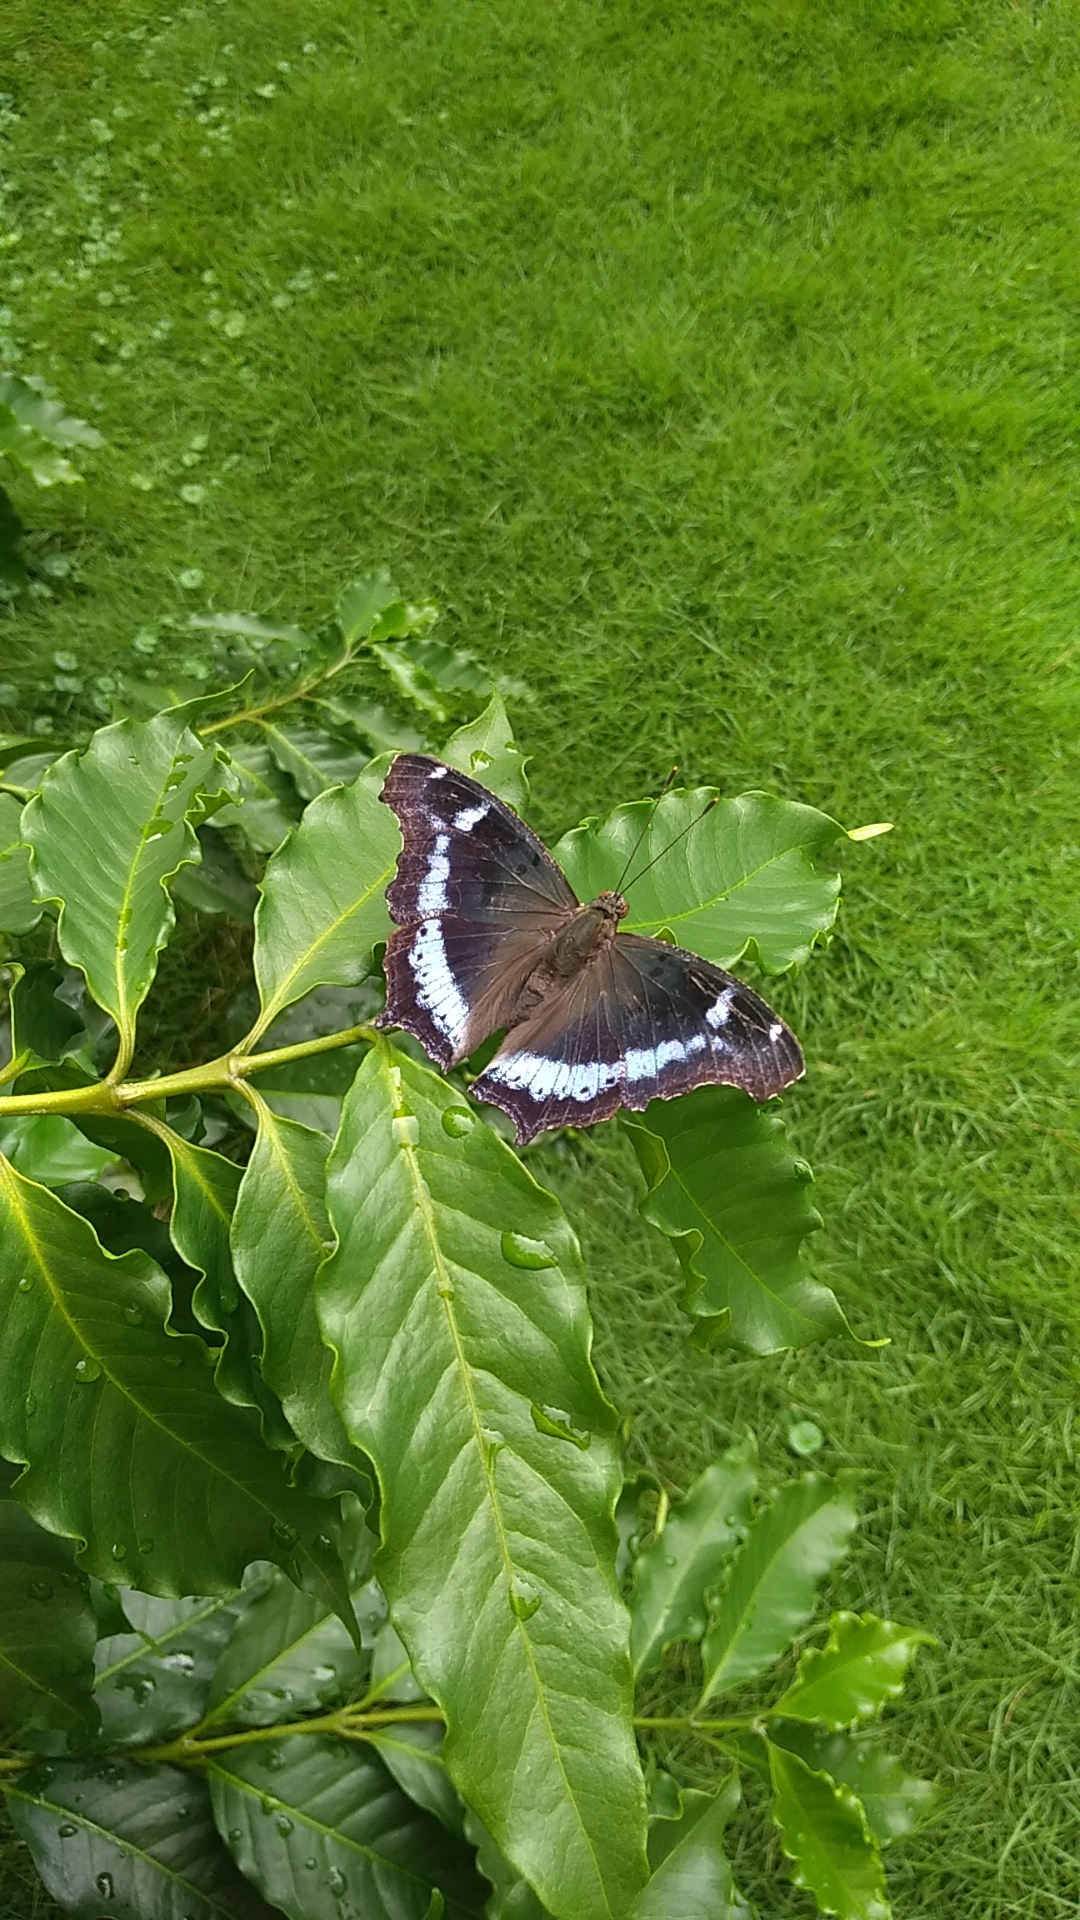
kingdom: Animalia
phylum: Arthropoda
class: Insecta
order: Lepidoptera
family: Nymphalidae
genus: Vanessa
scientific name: Vanessa Kaniska canace
